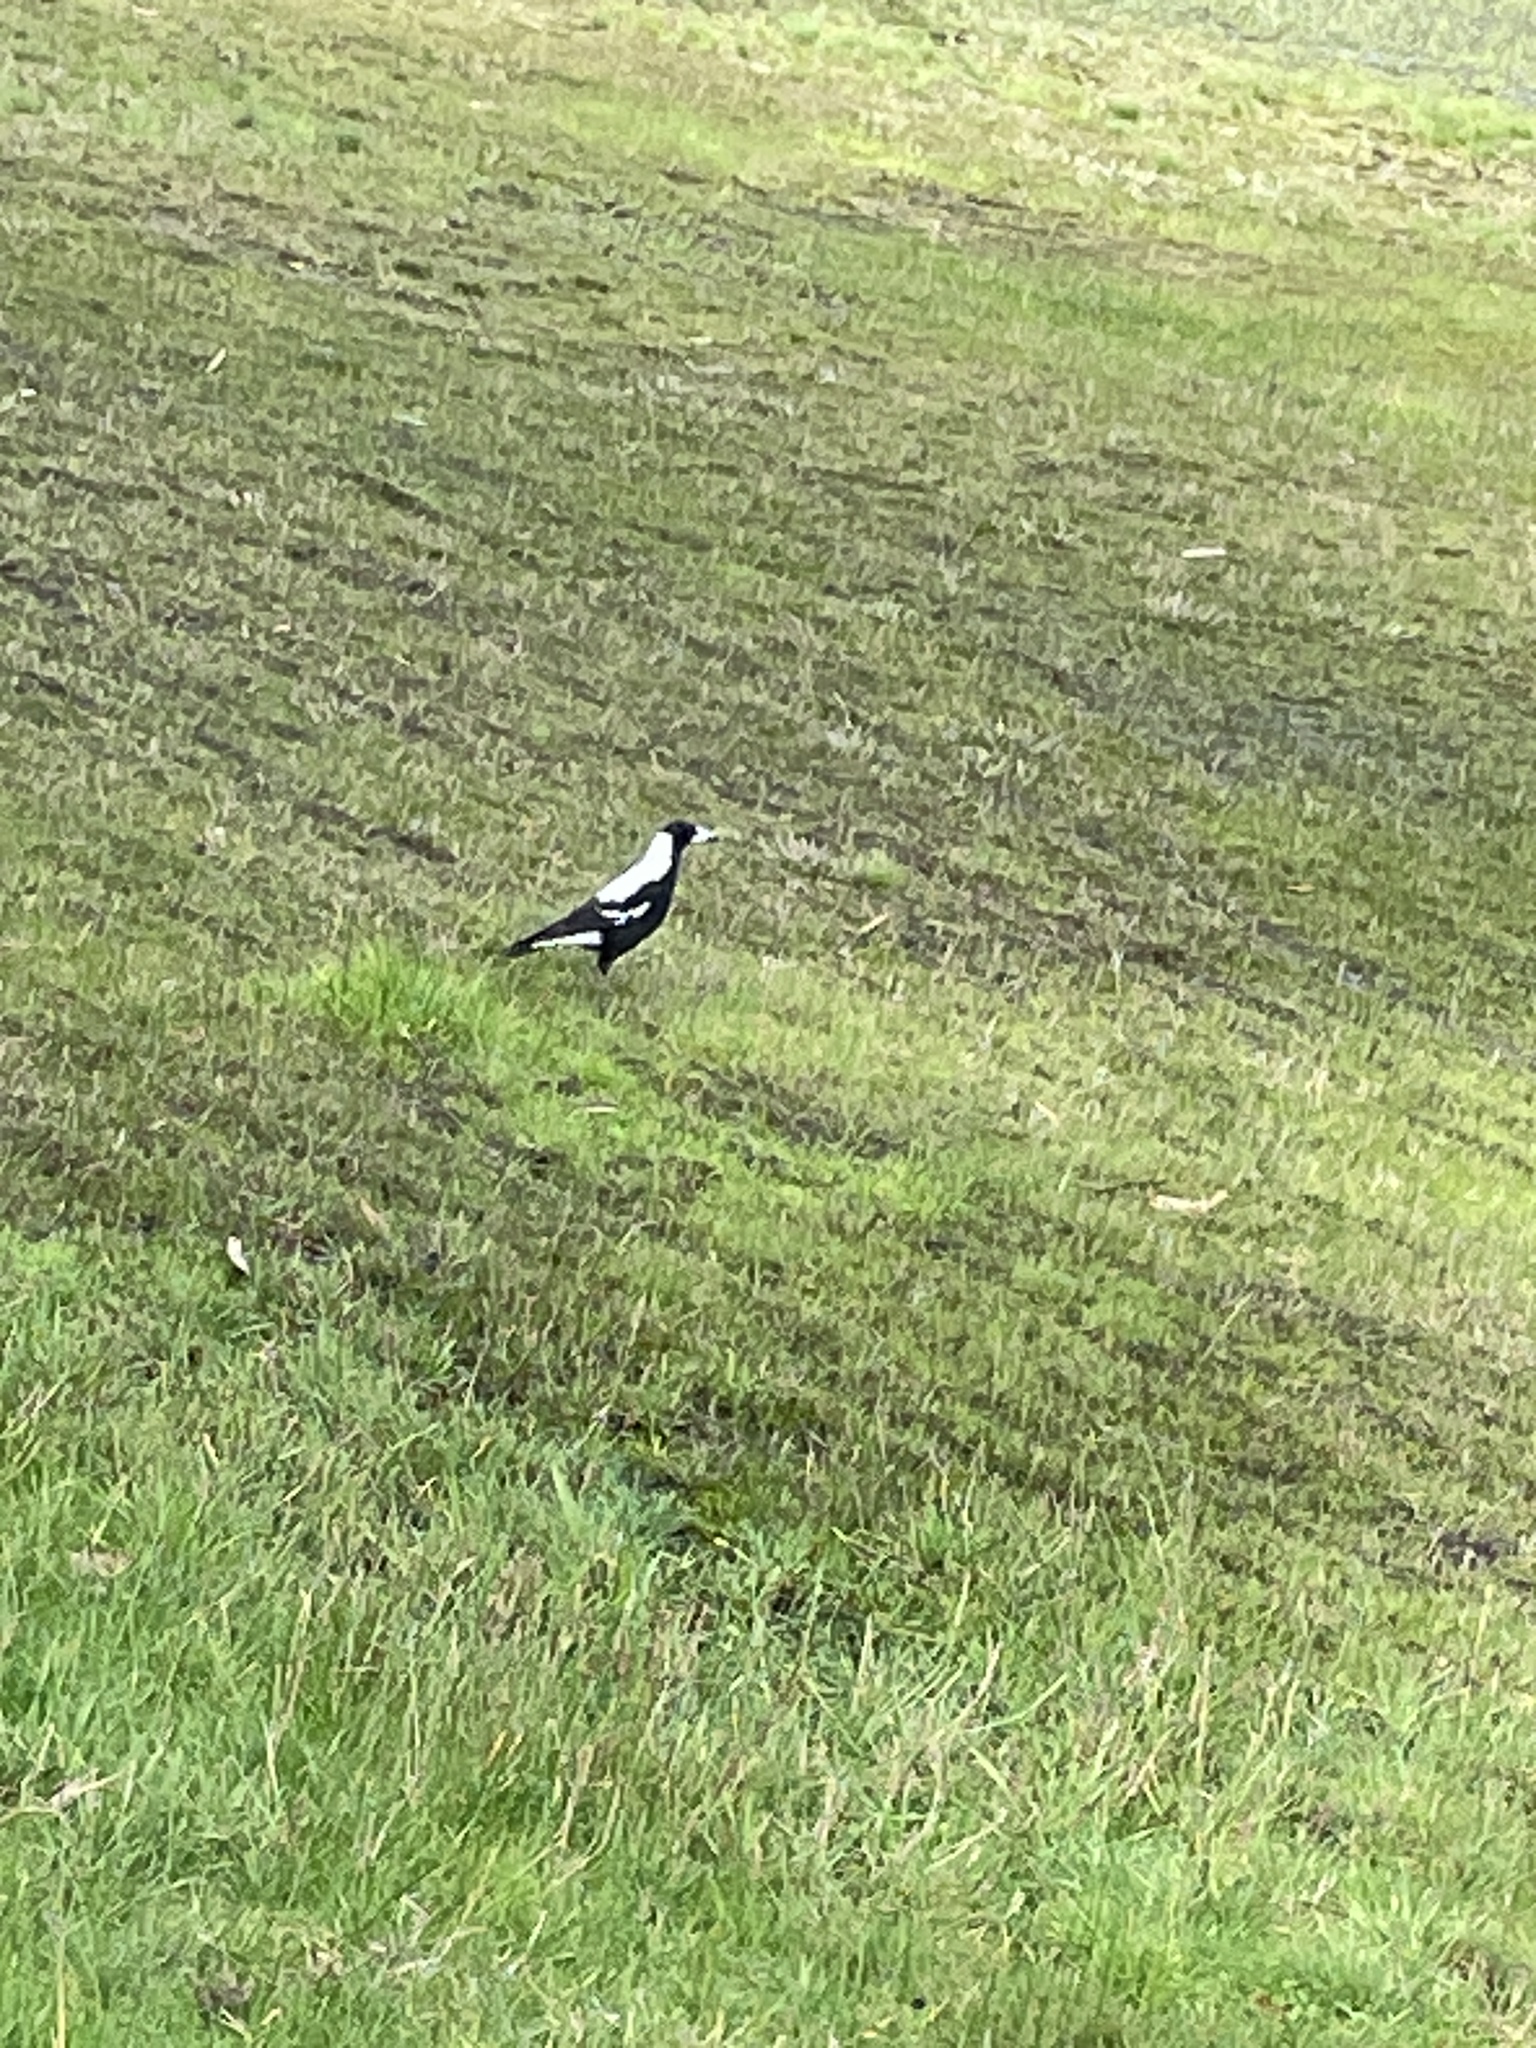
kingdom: Animalia
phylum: Chordata
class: Aves
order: Passeriformes
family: Cracticidae
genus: Gymnorhina
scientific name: Gymnorhina tibicen
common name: Australian magpie
